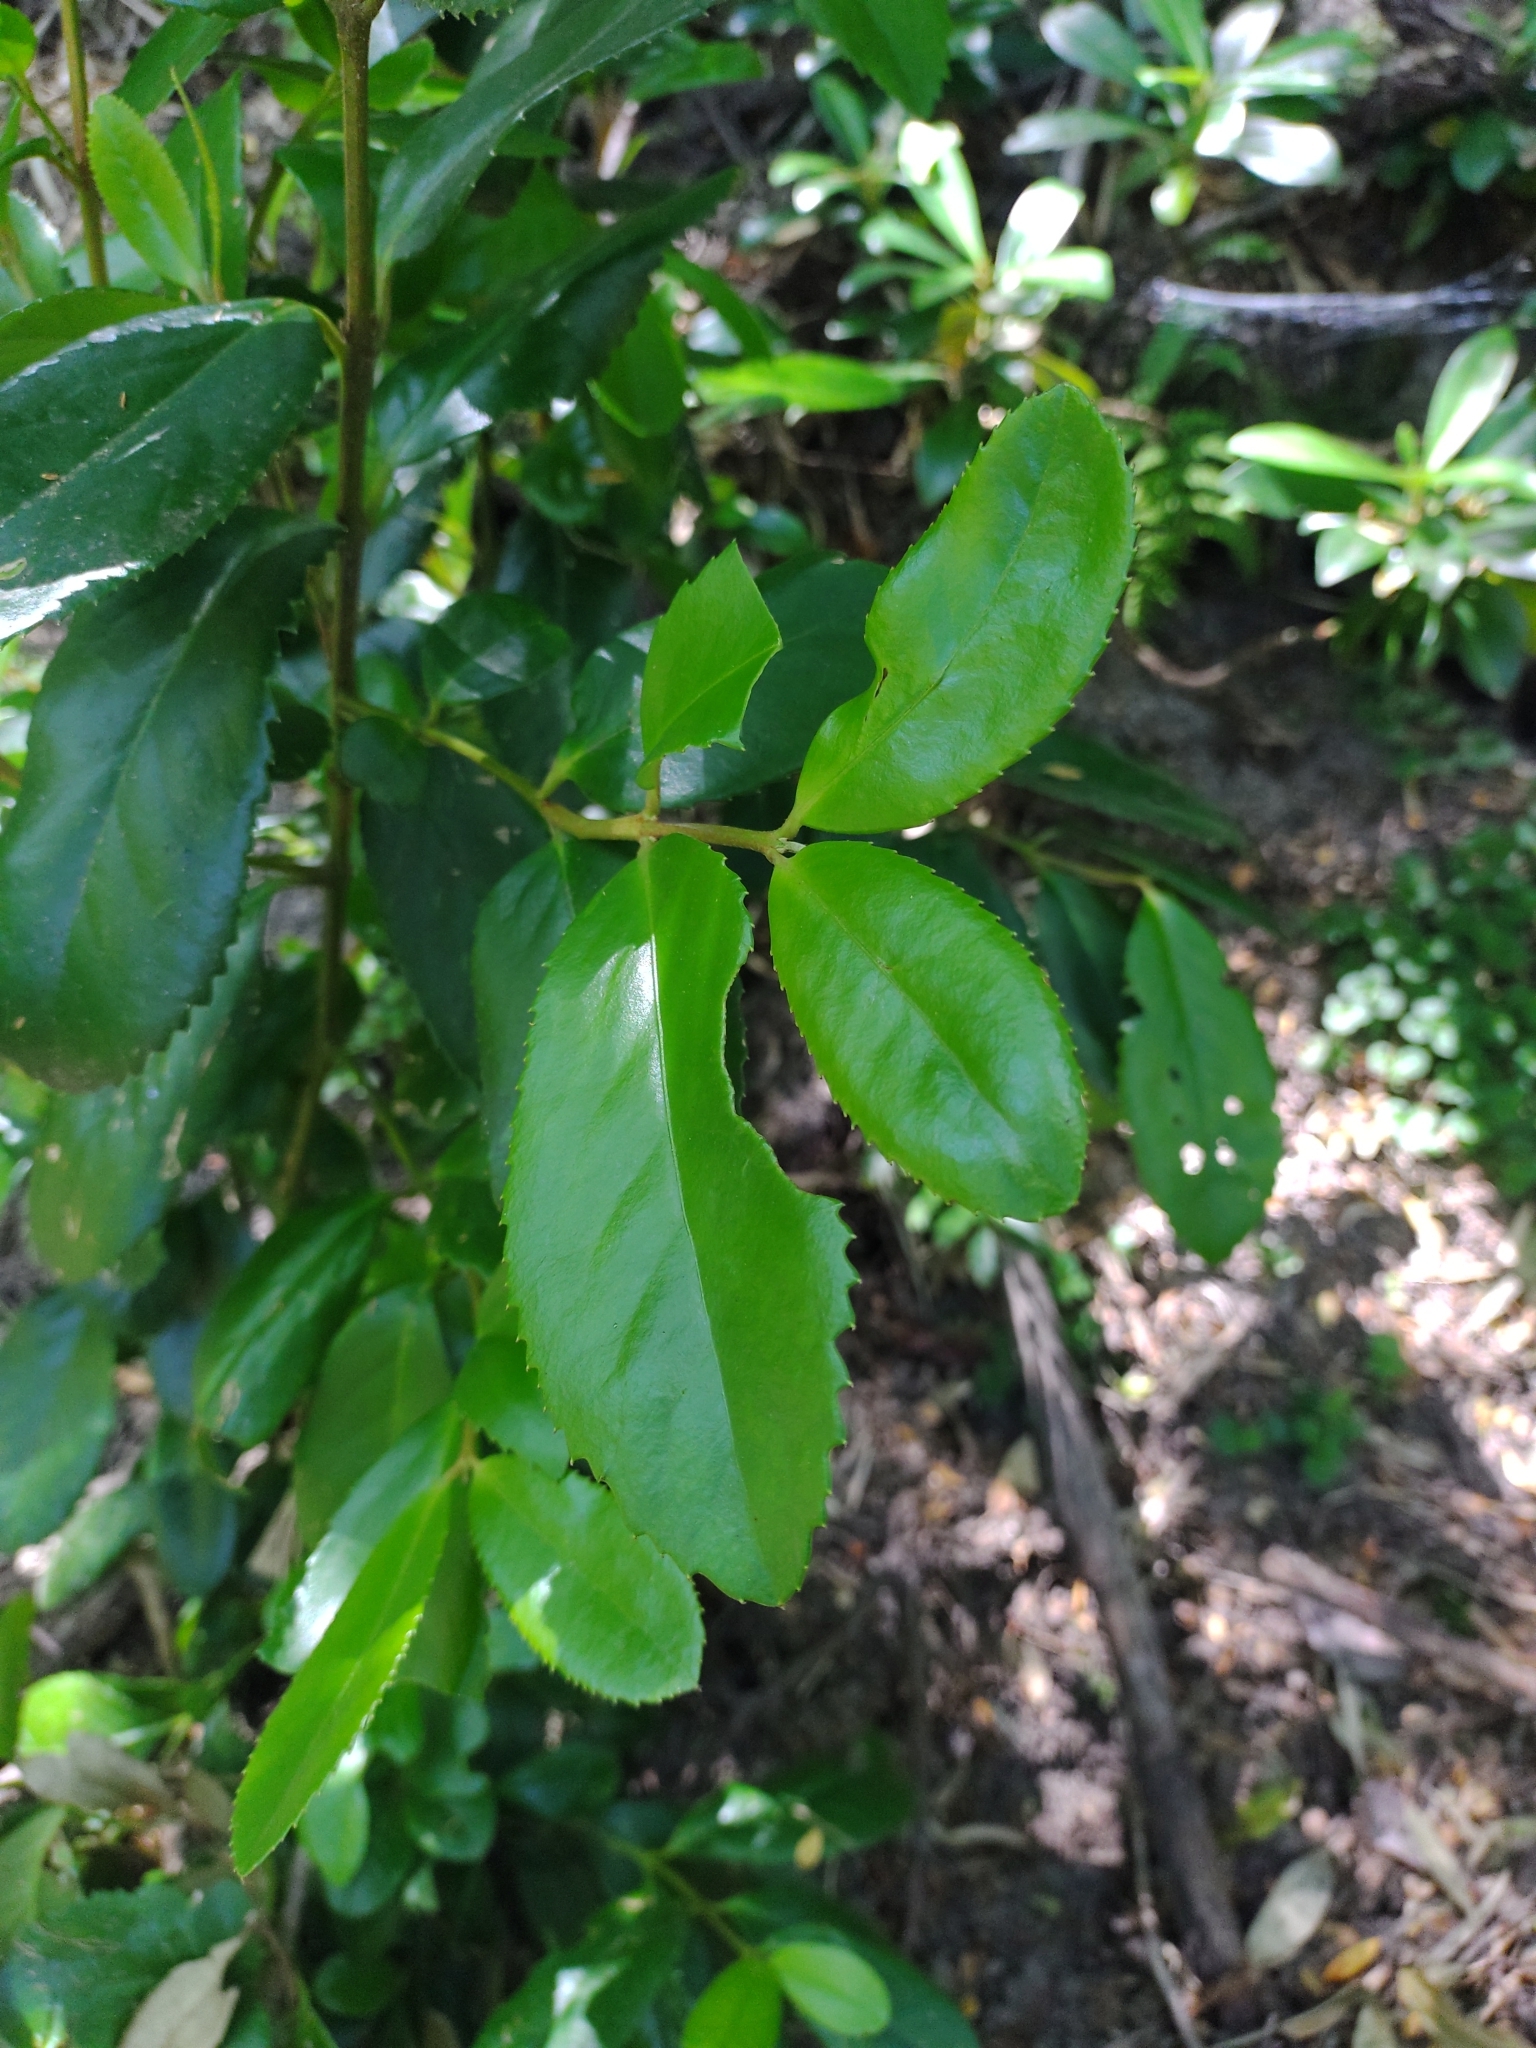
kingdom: Plantae
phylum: Tracheophyta
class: Magnoliopsida
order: Laurales
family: Atherospermataceae
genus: Laureliopsis
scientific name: Laureliopsis philippiana
